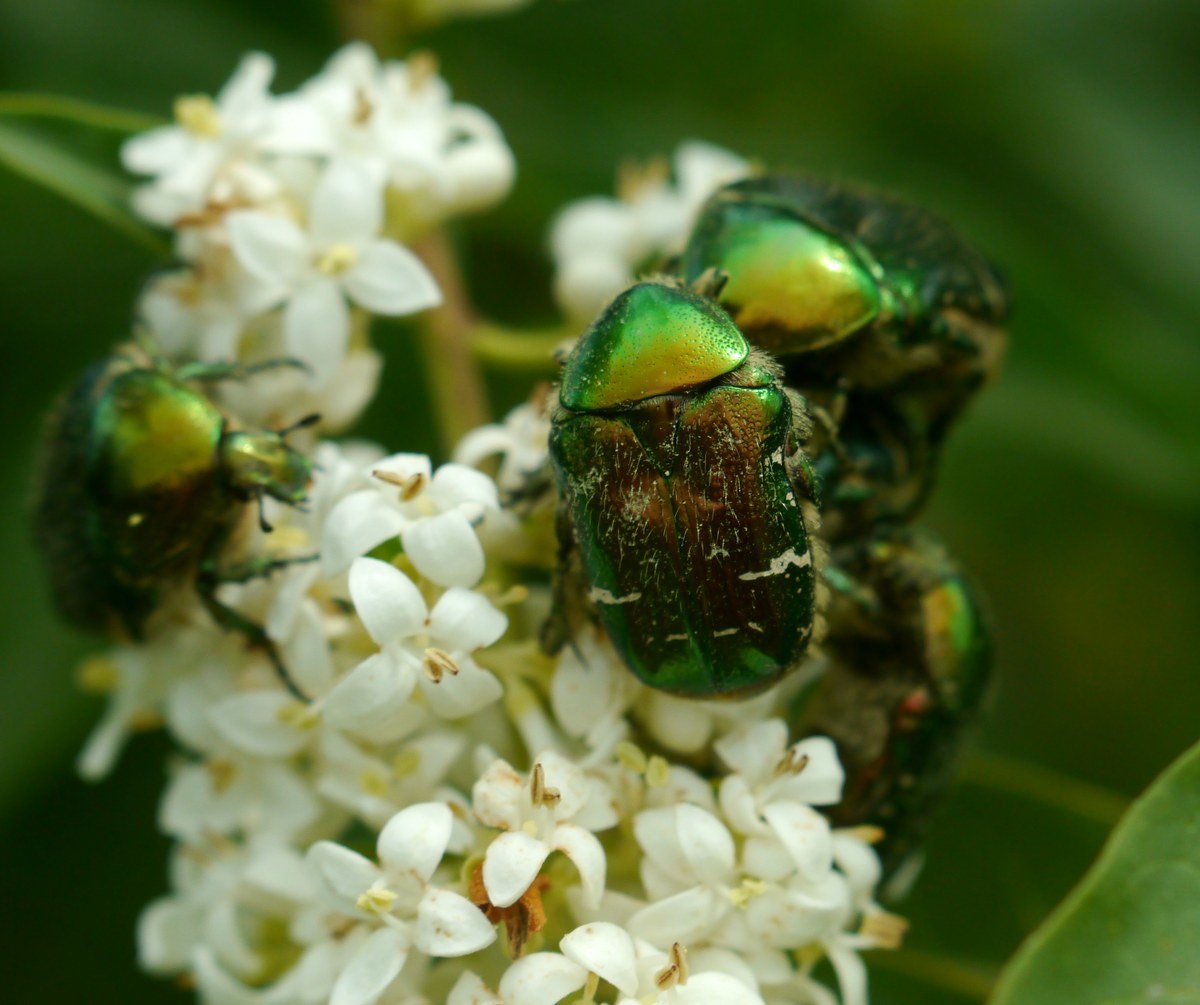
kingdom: Animalia
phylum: Arthropoda
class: Insecta
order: Coleoptera
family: Scarabaeidae
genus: Cetonia
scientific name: Cetonia aurata
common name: Rose chafer
